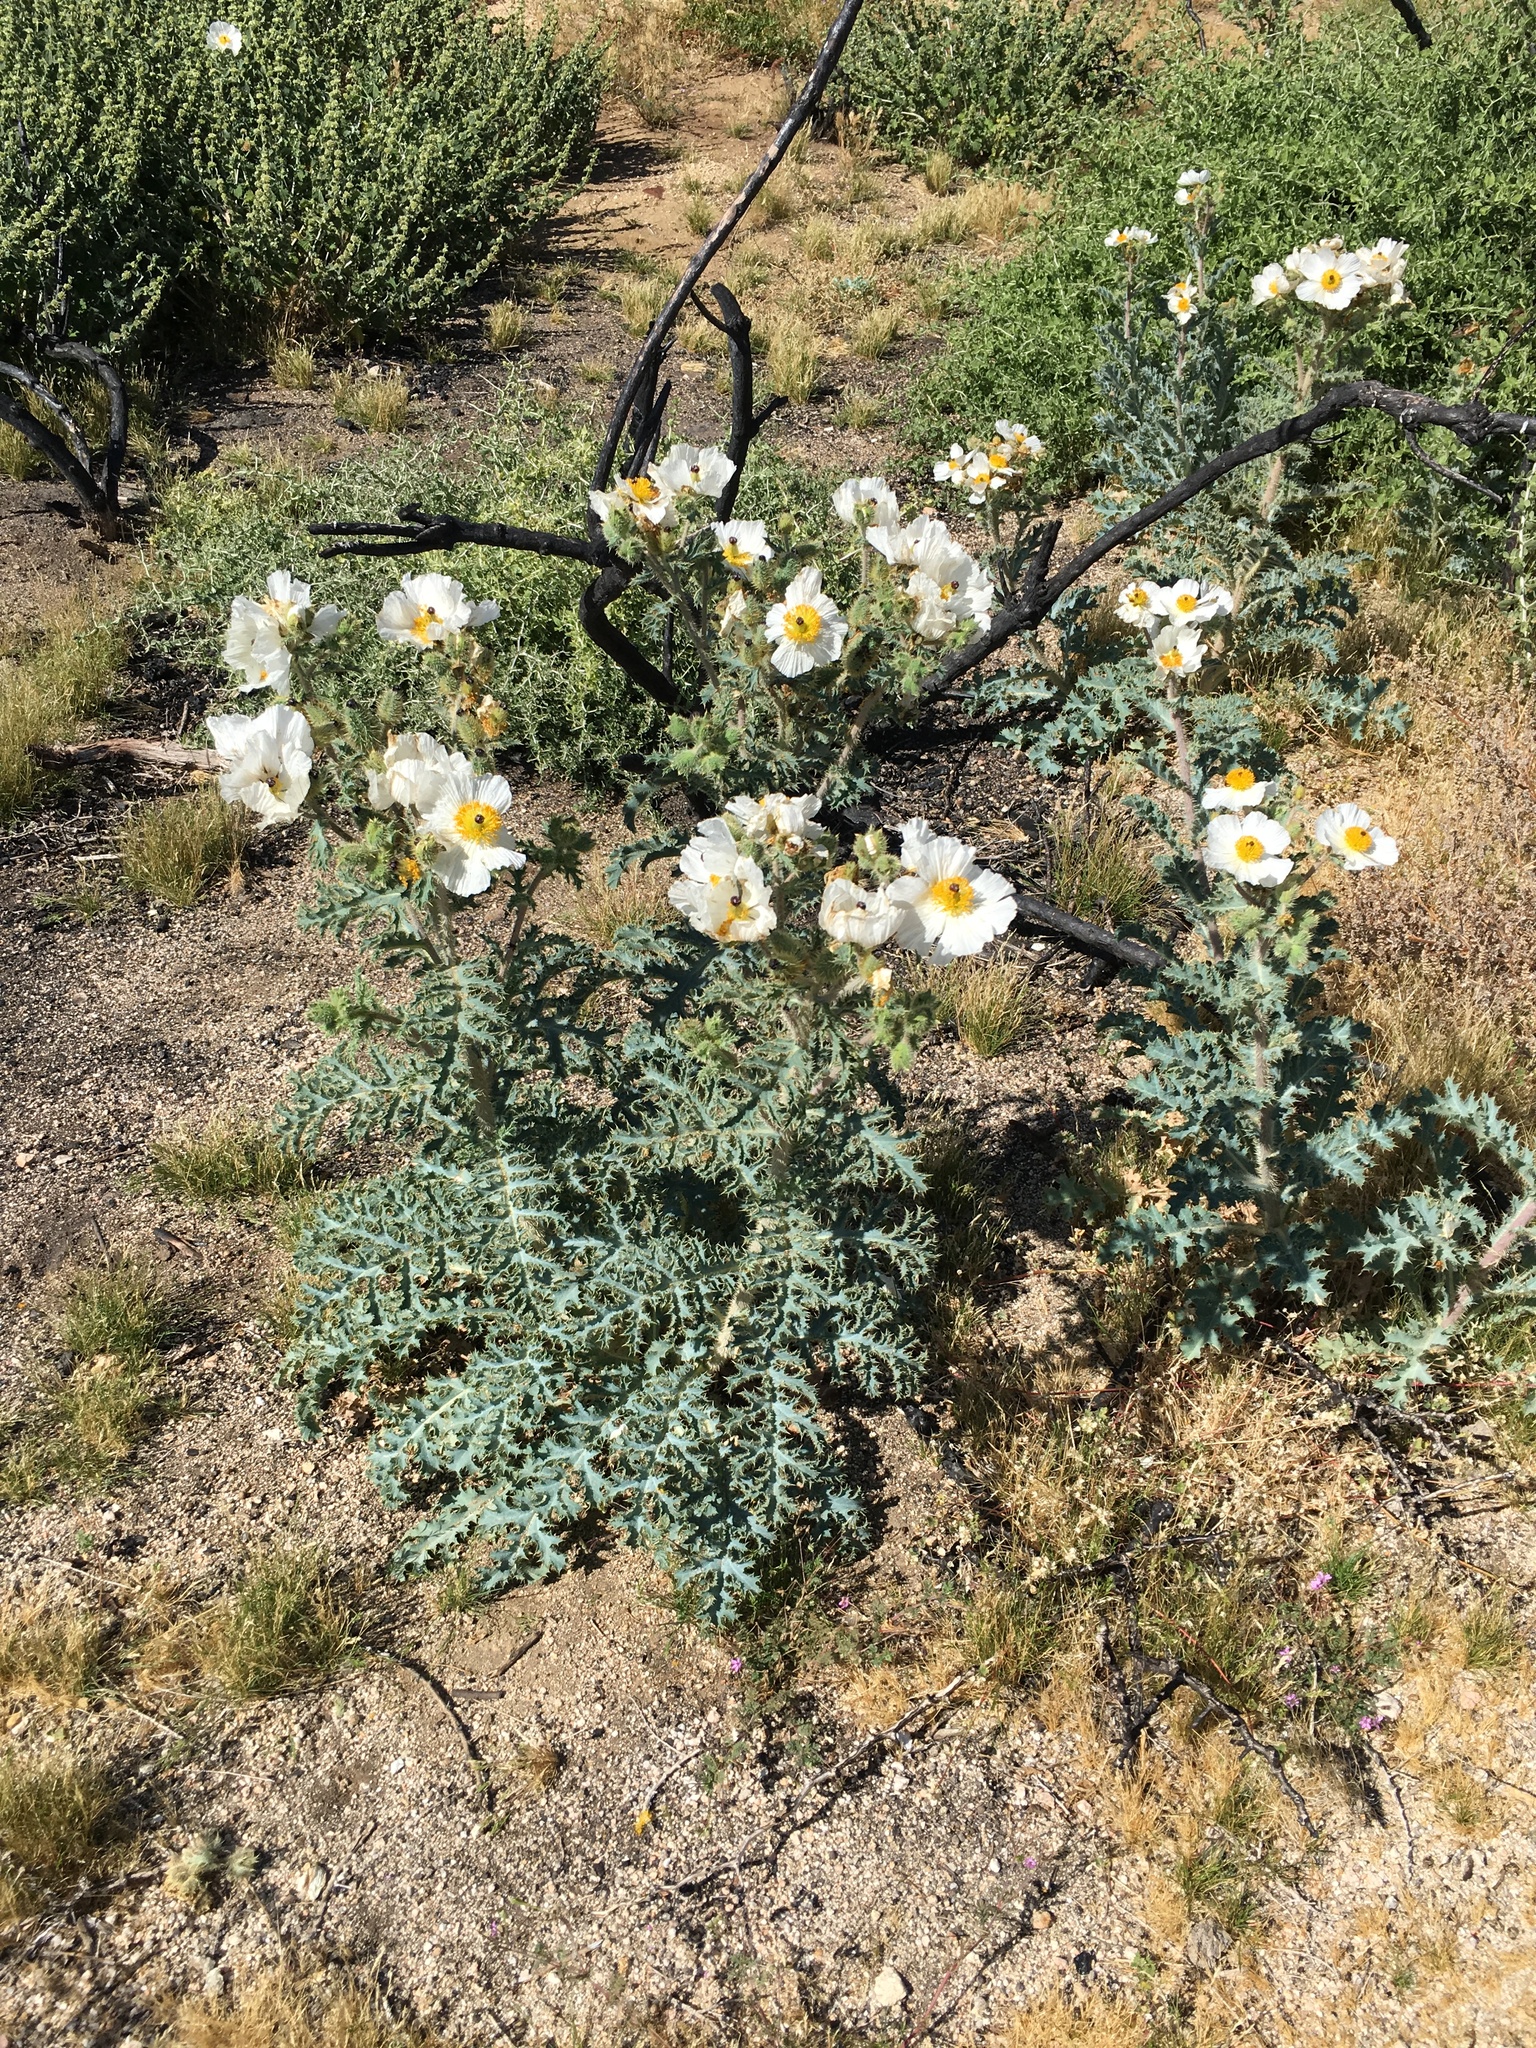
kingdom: Plantae
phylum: Tracheophyta
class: Magnoliopsida
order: Ranunculales
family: Papaveraceae
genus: Argemone
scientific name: Argemone munita
